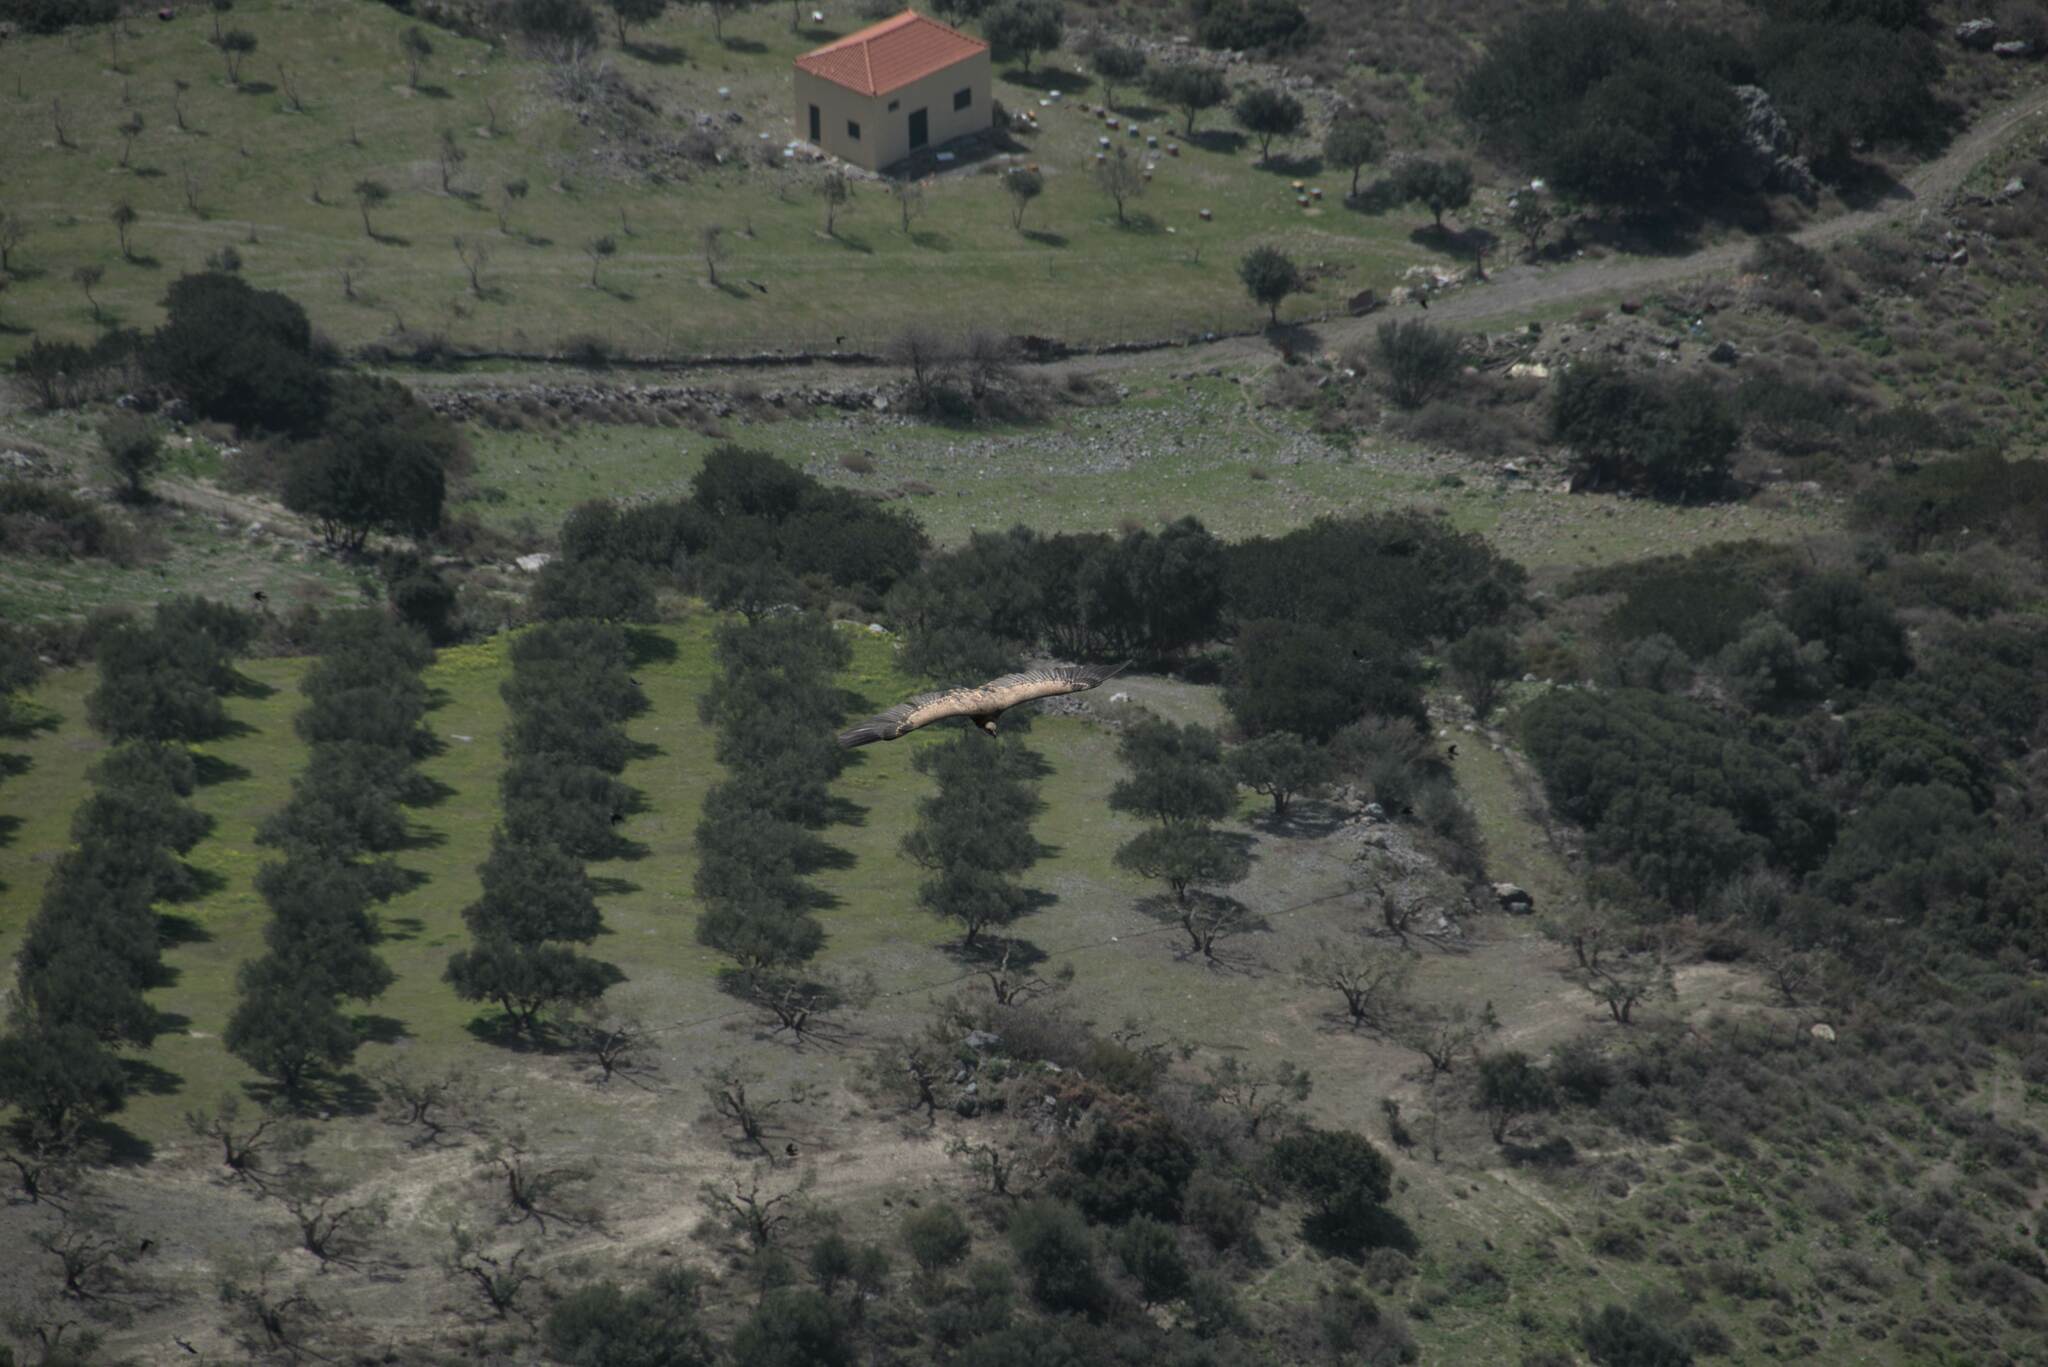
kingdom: Animalia
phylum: Chordata
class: Aves
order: Accipitriformes
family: Accipitridae
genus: Gyps
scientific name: Gyps fulvus
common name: Griffon vulture
